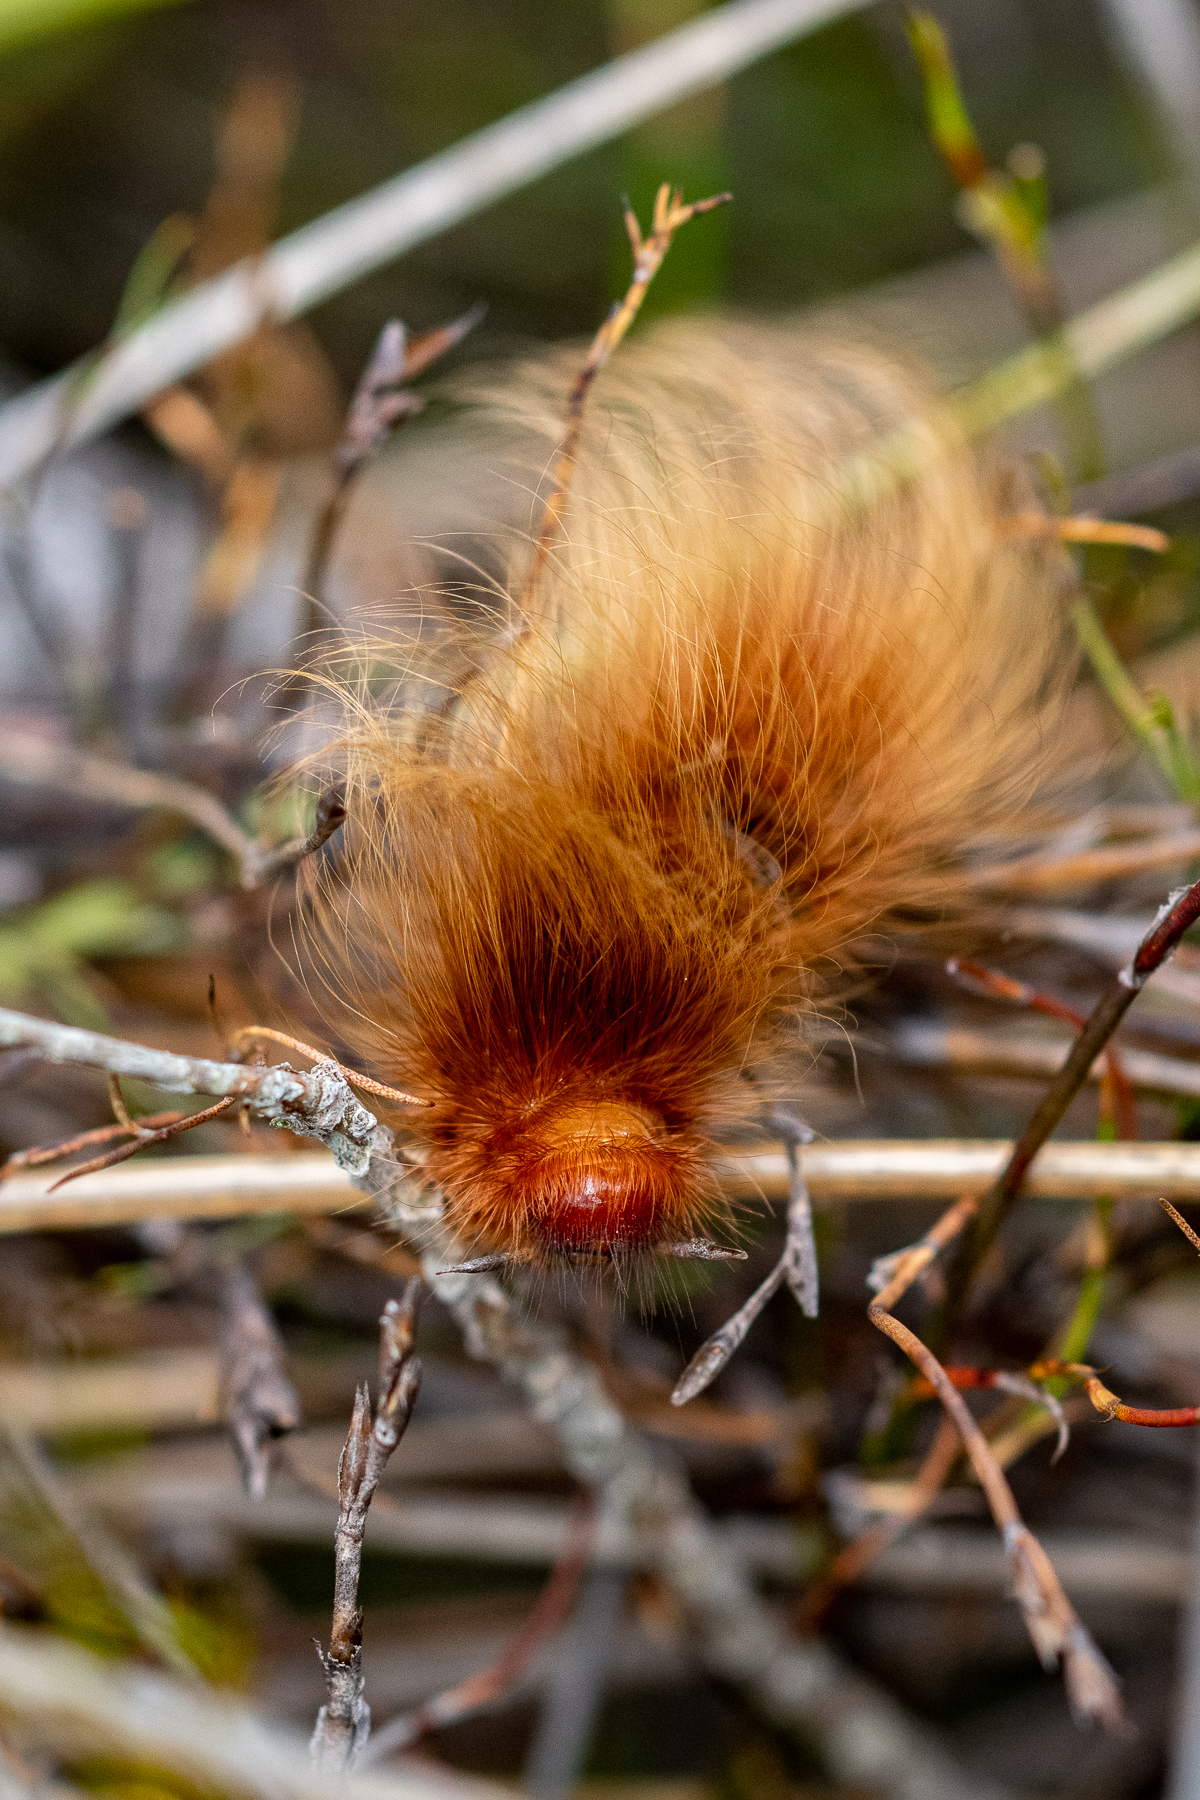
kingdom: Animalia
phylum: Arthropoda
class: Insecta
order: Lepidoptera
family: Eupterotidae
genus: Phyllalia
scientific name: Phyllalia patens
